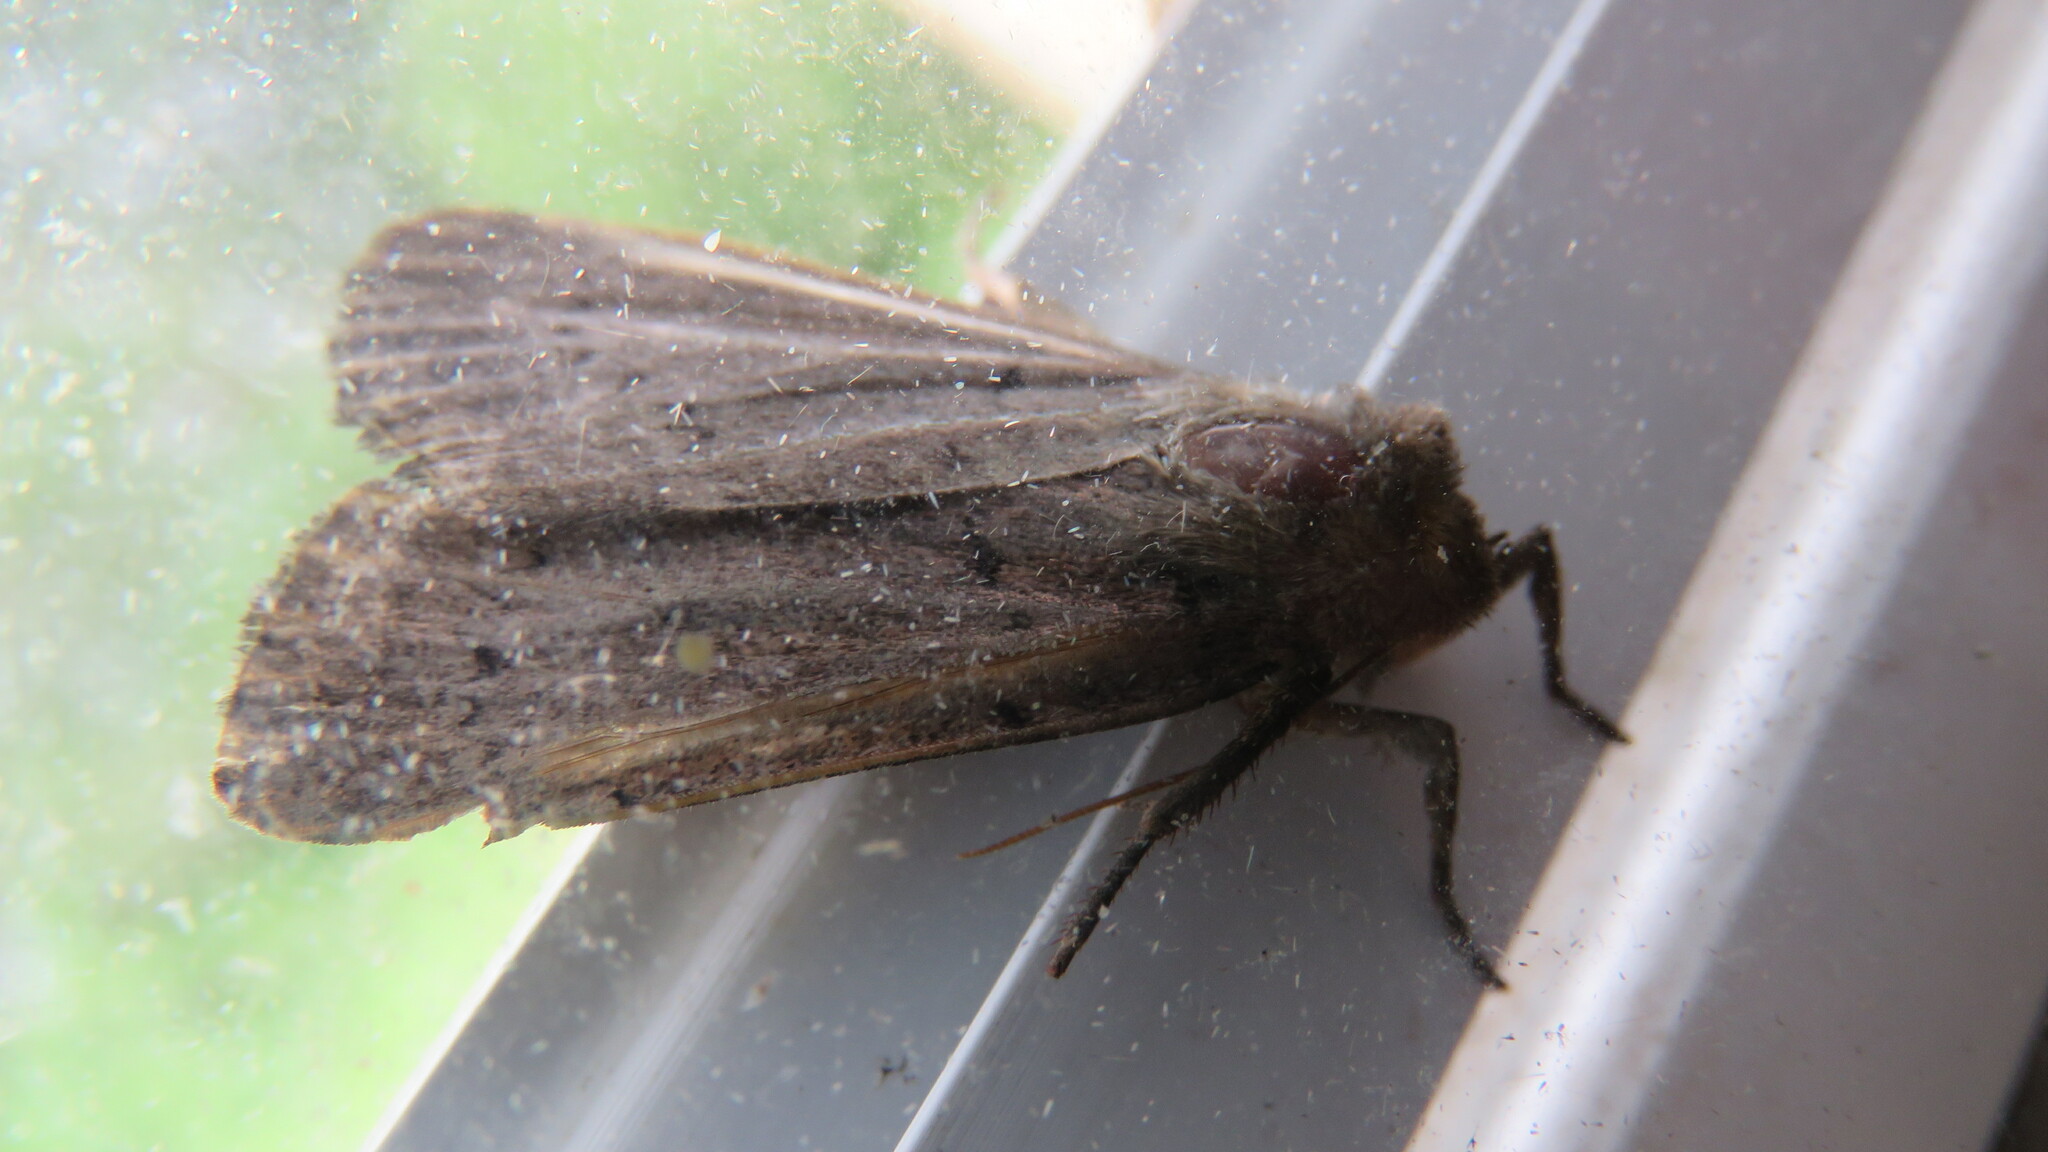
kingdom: Animalia
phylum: Arthropoda
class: Insecta
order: Lepidoptera
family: Noctuidae
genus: Graphiphora
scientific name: Graphiphora augur
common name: Double dart
